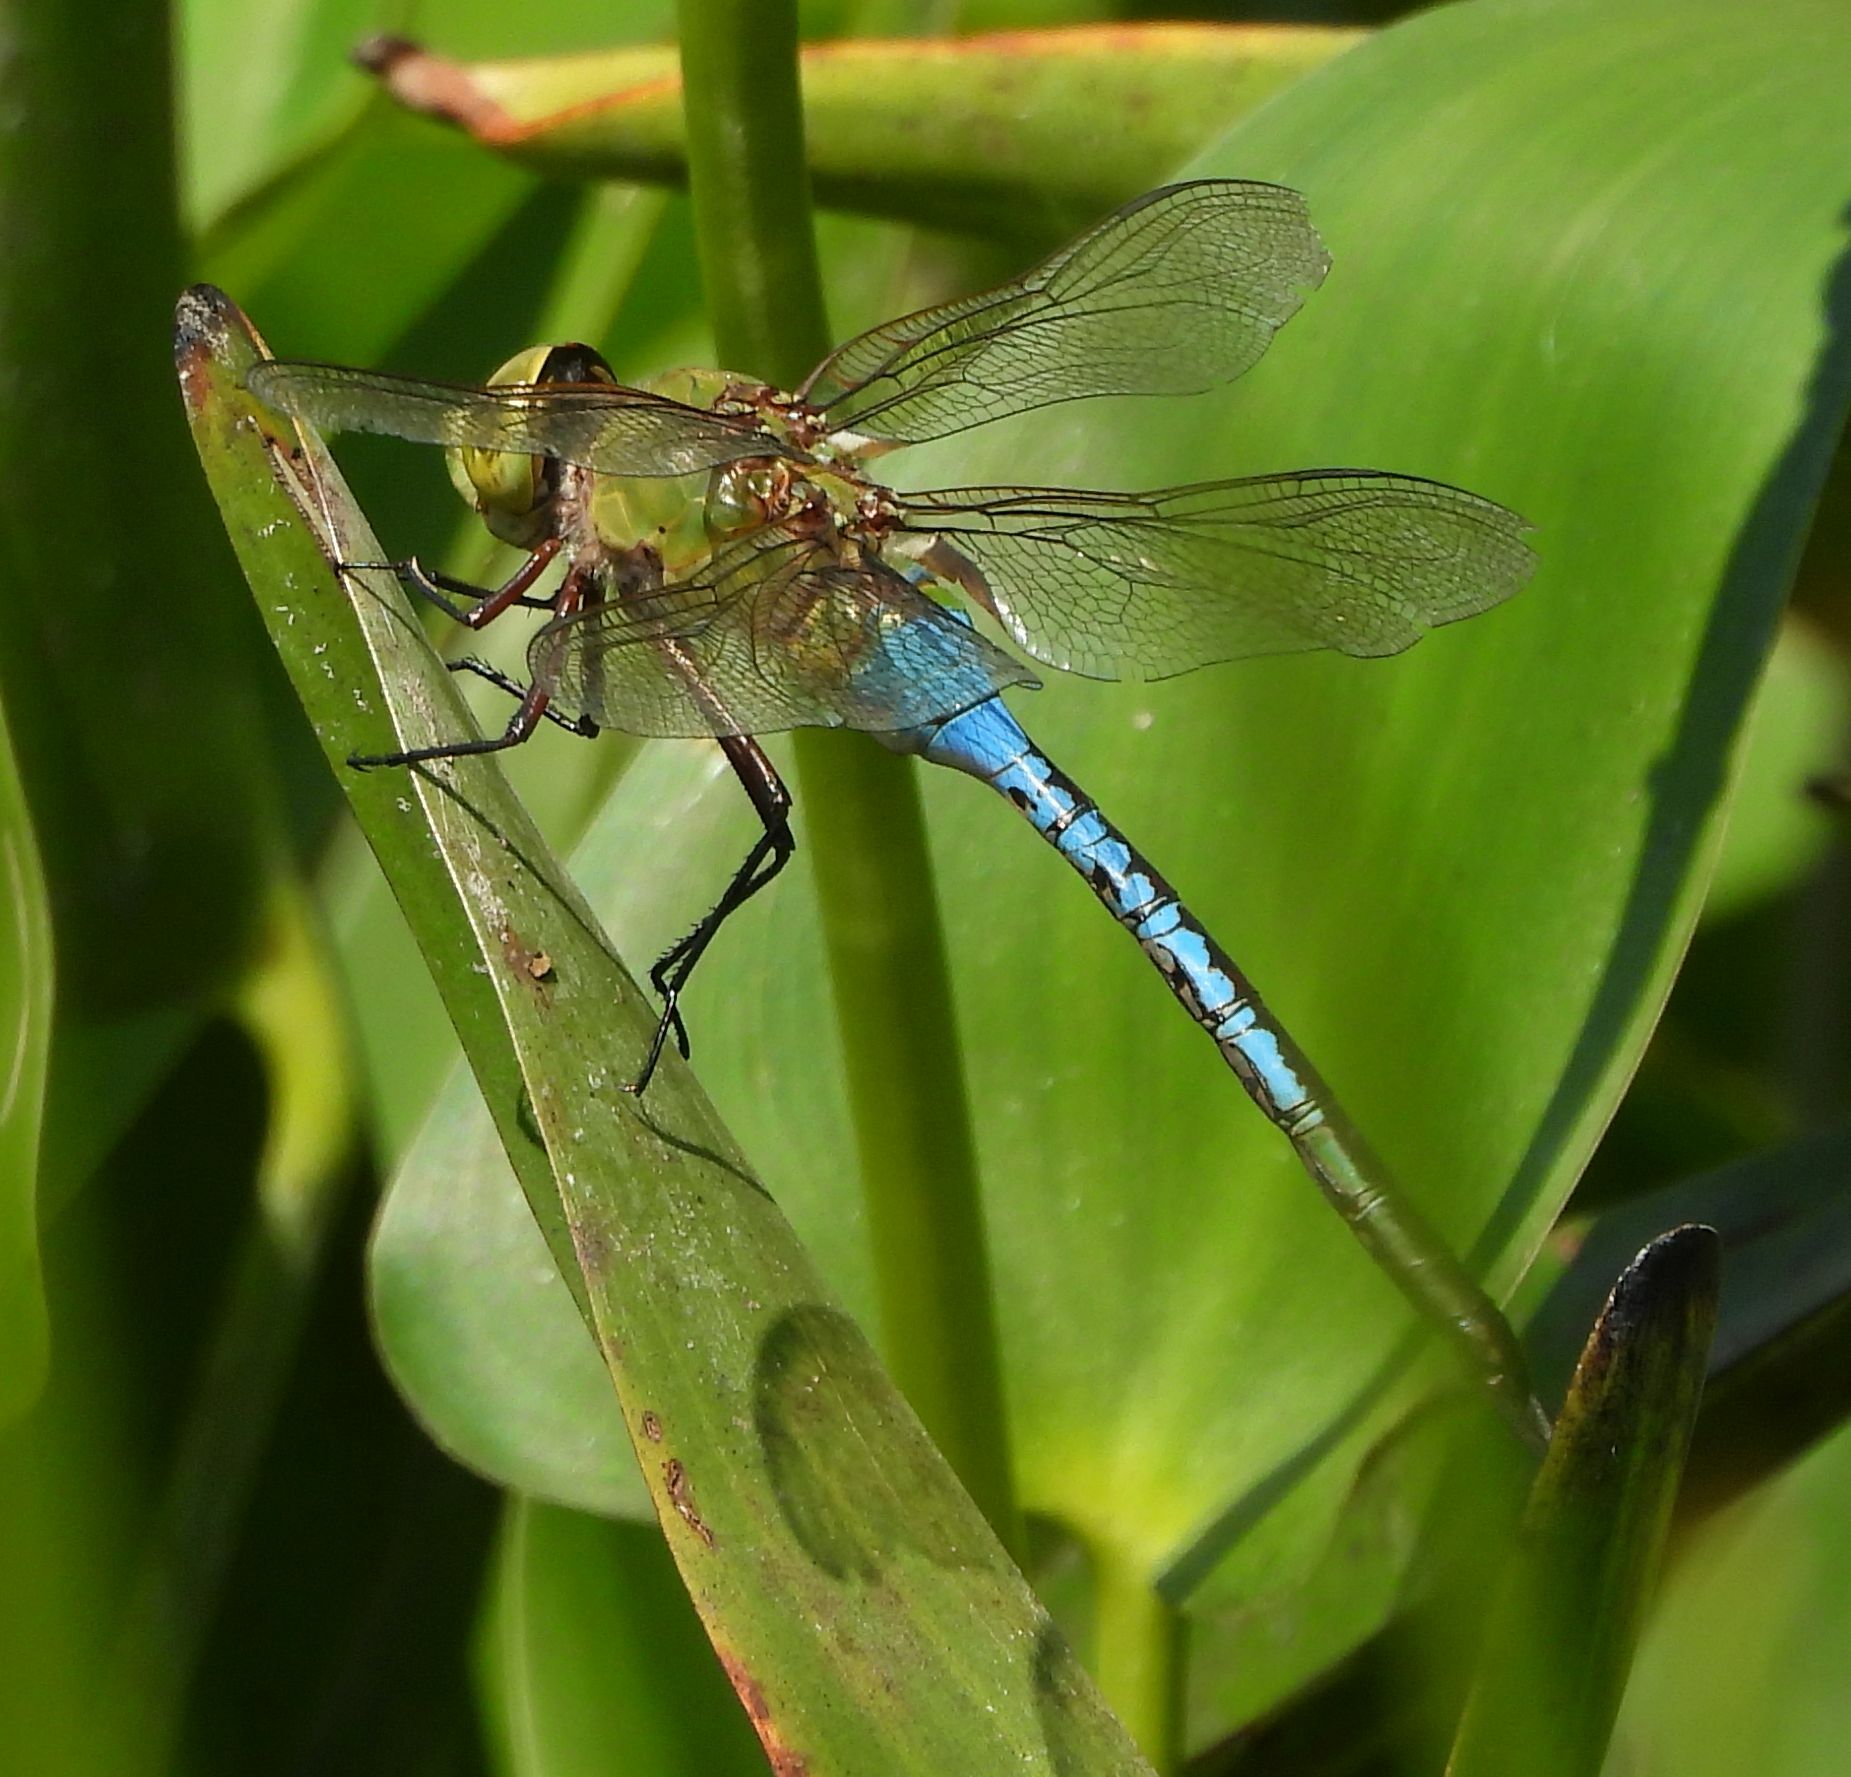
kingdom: Animalia
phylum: Arthropoda
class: Insecta
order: Odonata
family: Aeshnidae
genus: Anax
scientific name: Anax junius
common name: Common green darner
